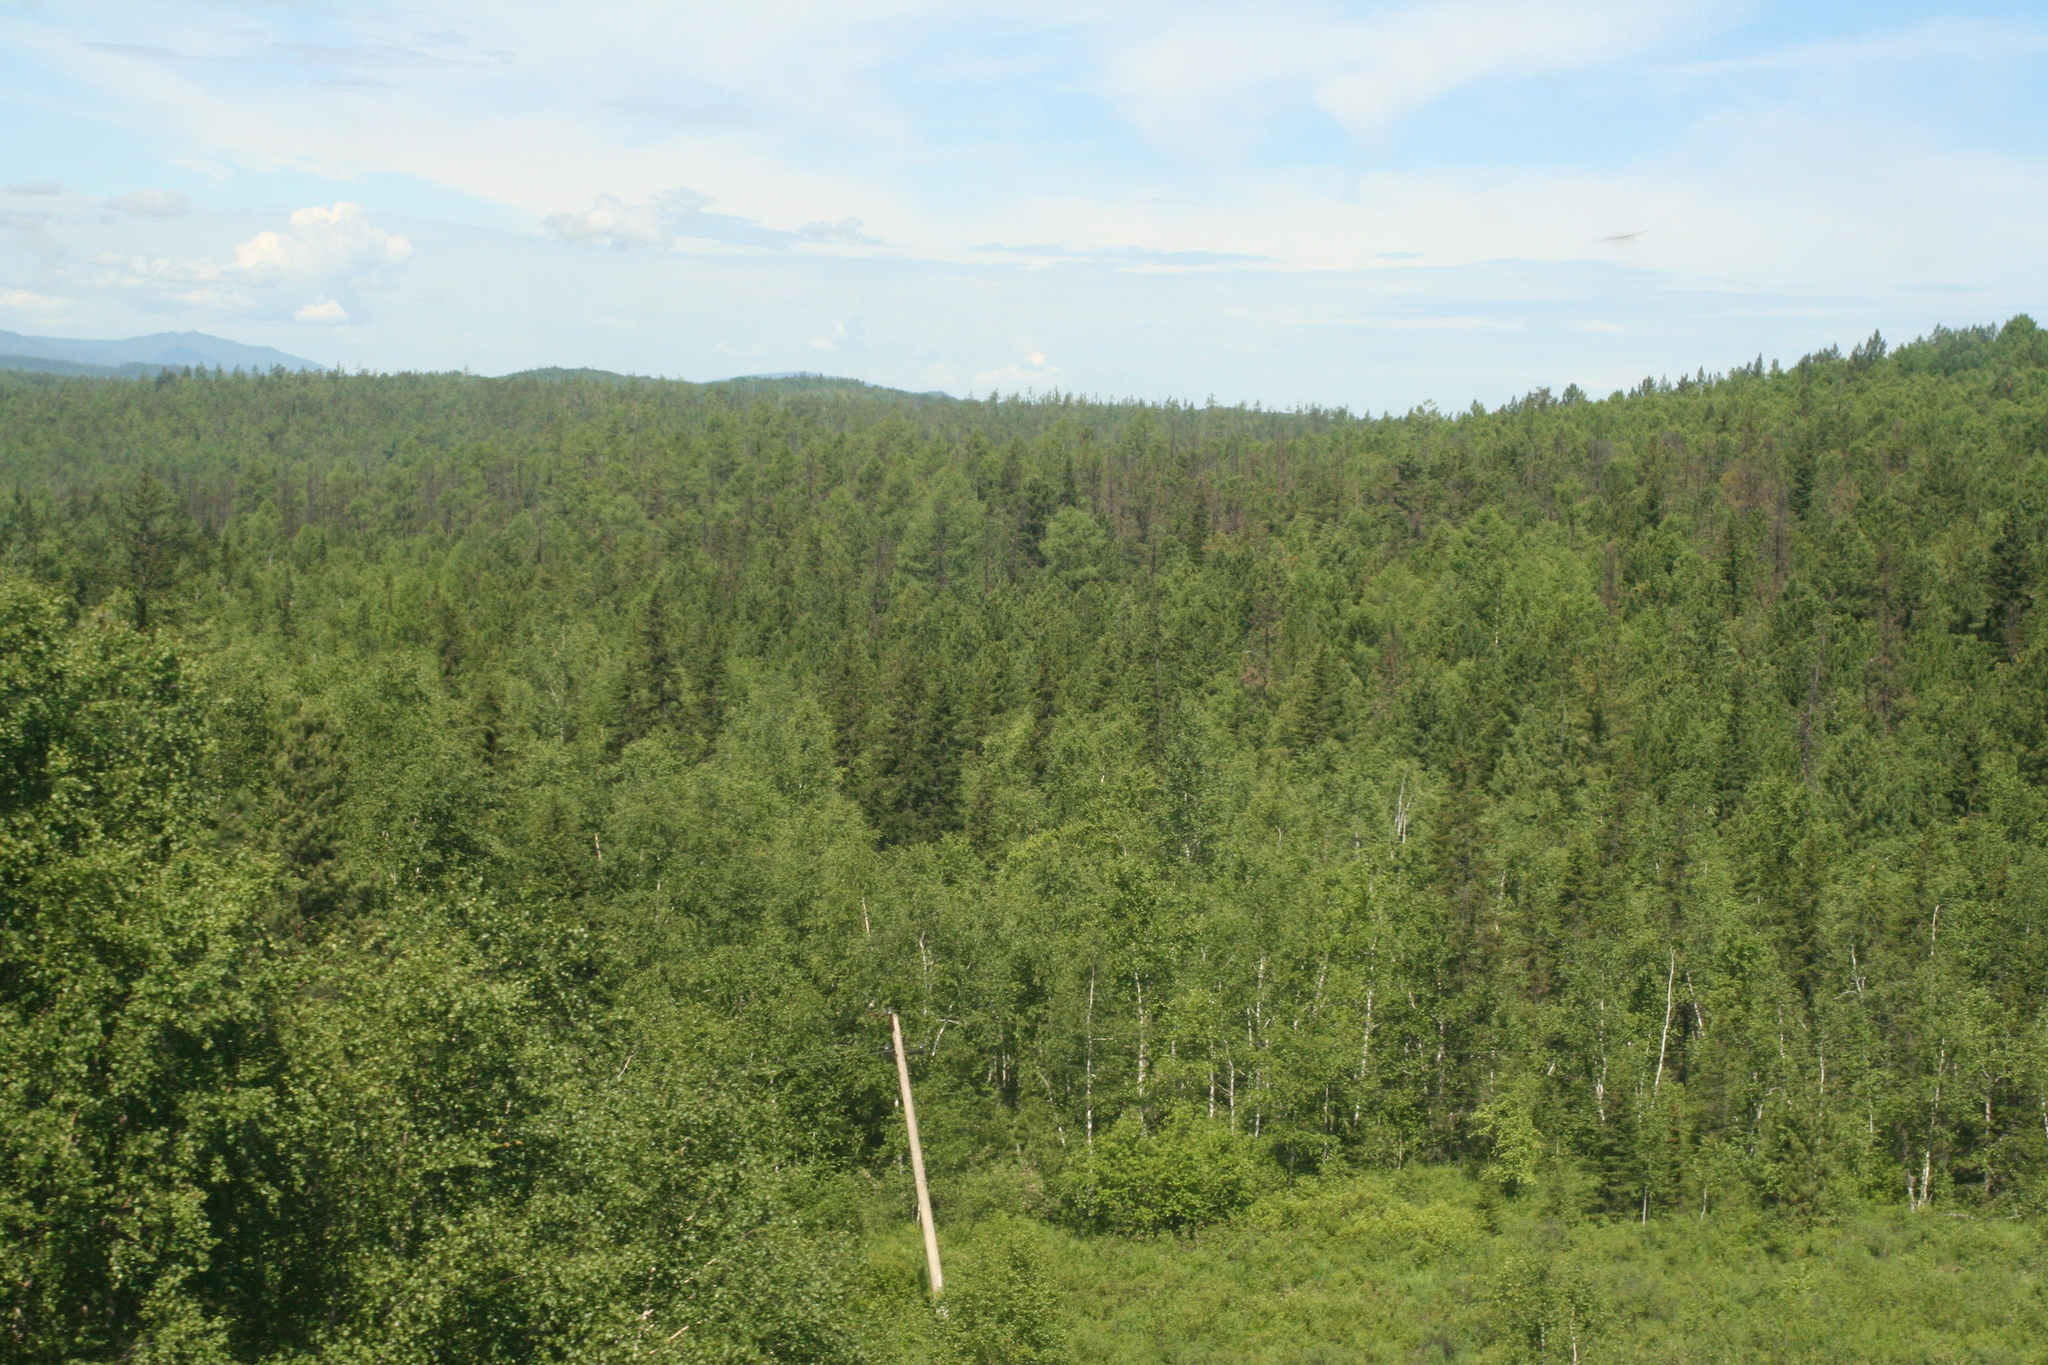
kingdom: Plantae
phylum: Tracheophyta
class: Pinopsida
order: Pinales
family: Pinaceae
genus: Abies
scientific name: Abies sibirica
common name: Siberian fir
